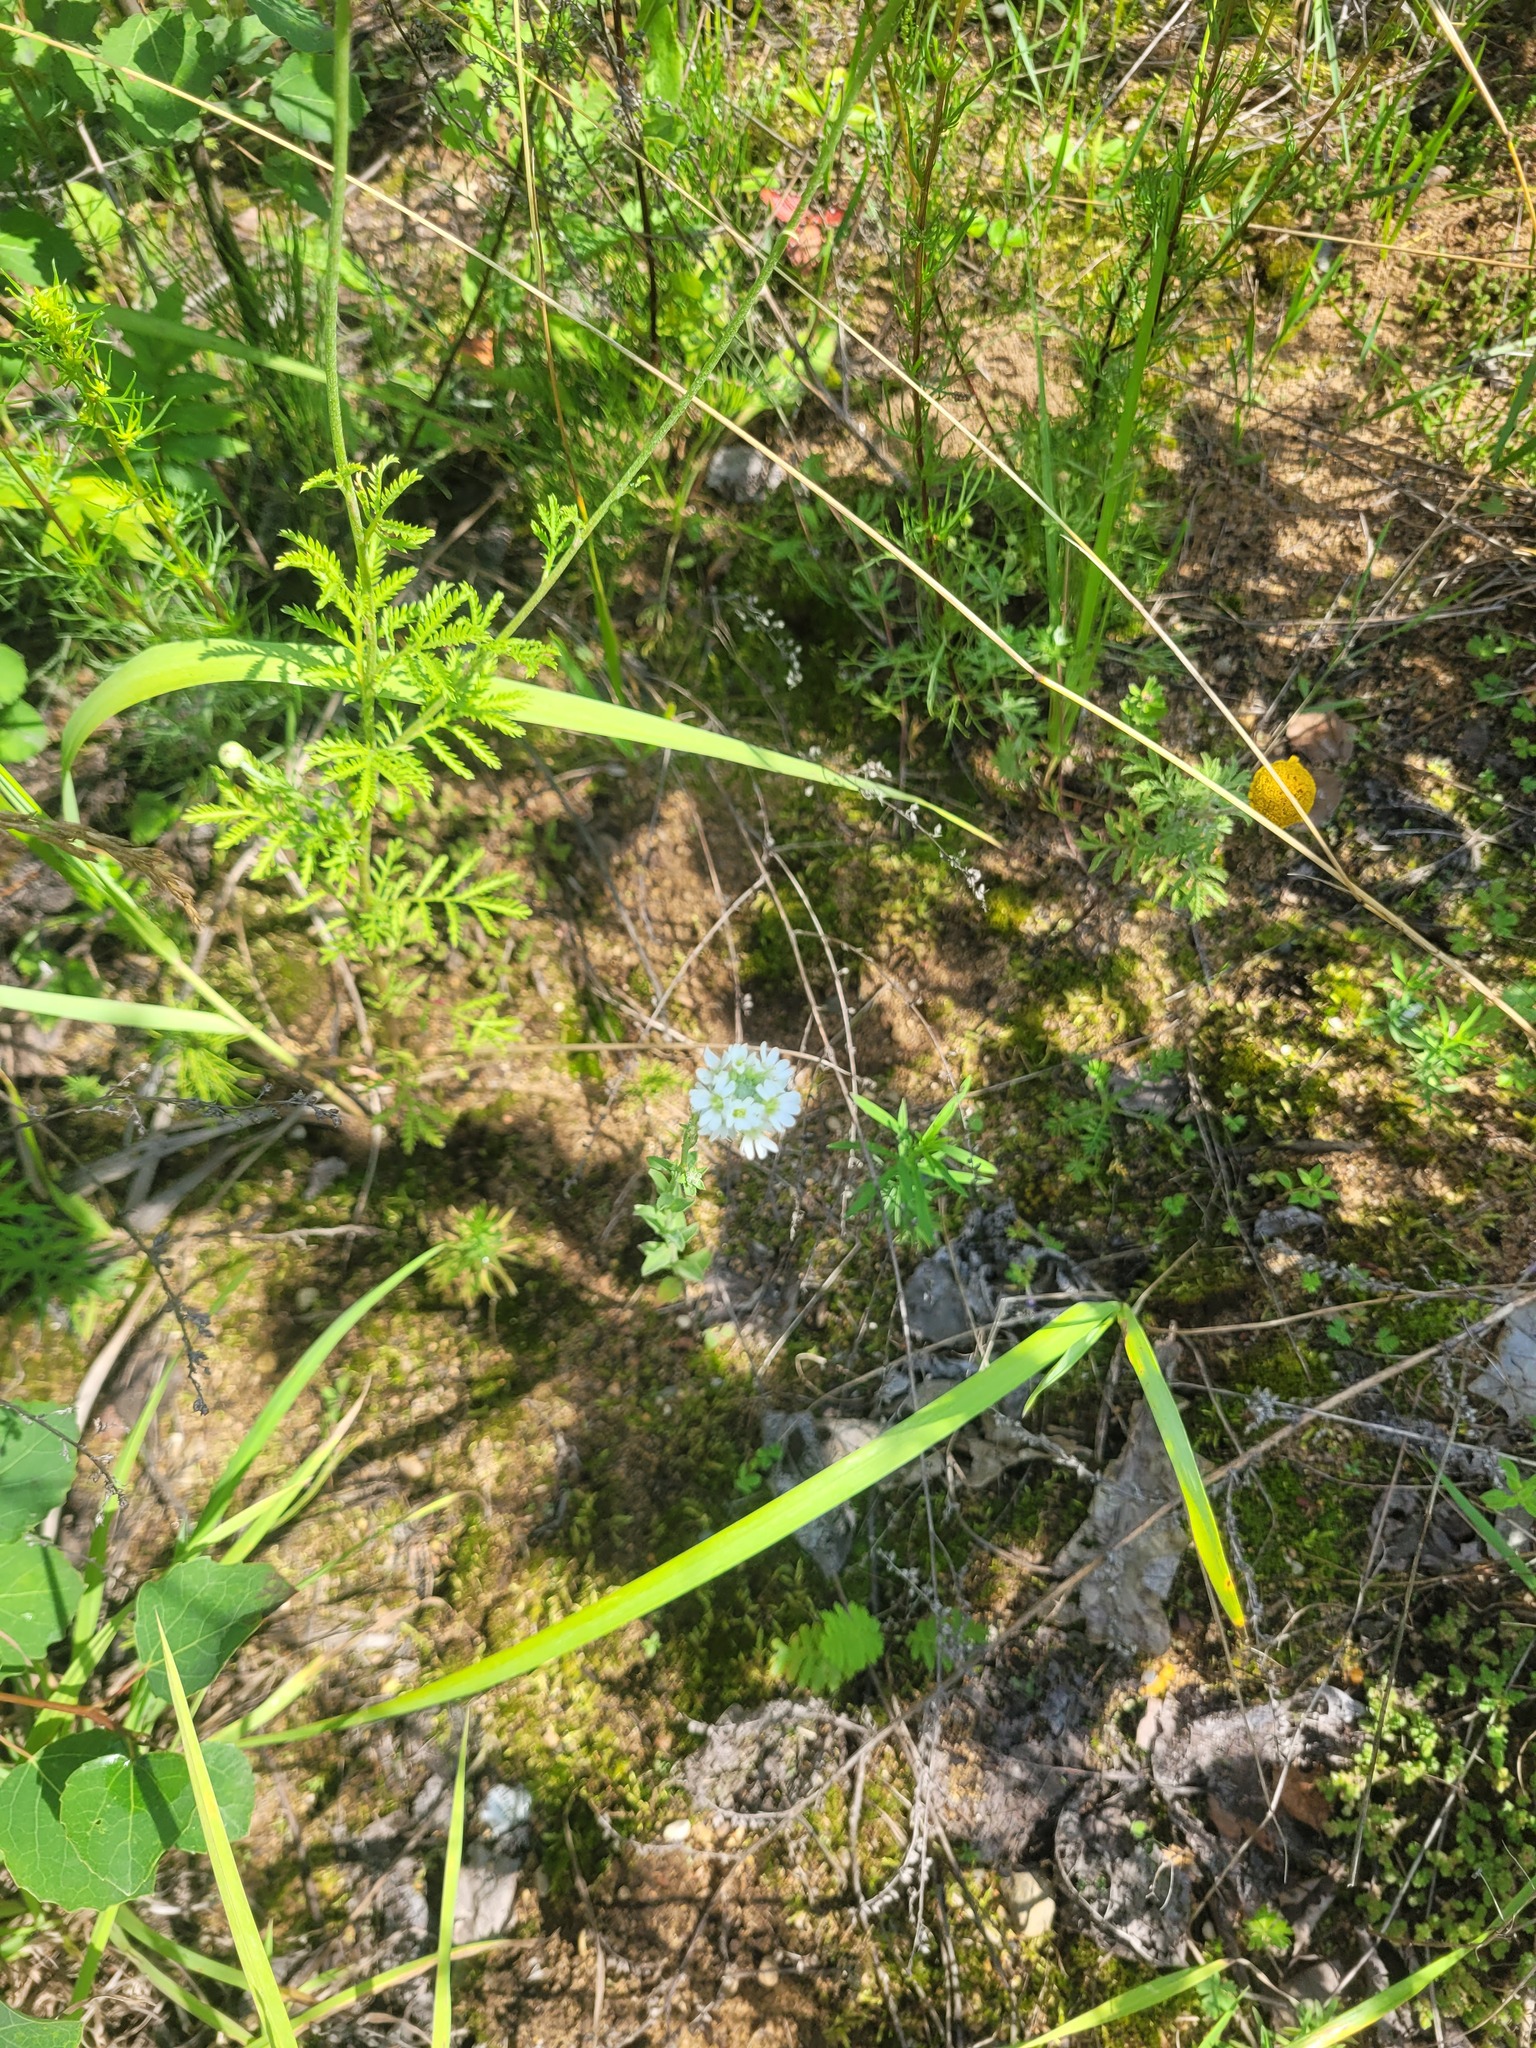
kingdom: Plantae
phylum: Tracheophyta
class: Magnoliopsida
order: Brassicales
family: Brassicaceae
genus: Berteroa
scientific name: Berteroa incana
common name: Hoary alison
